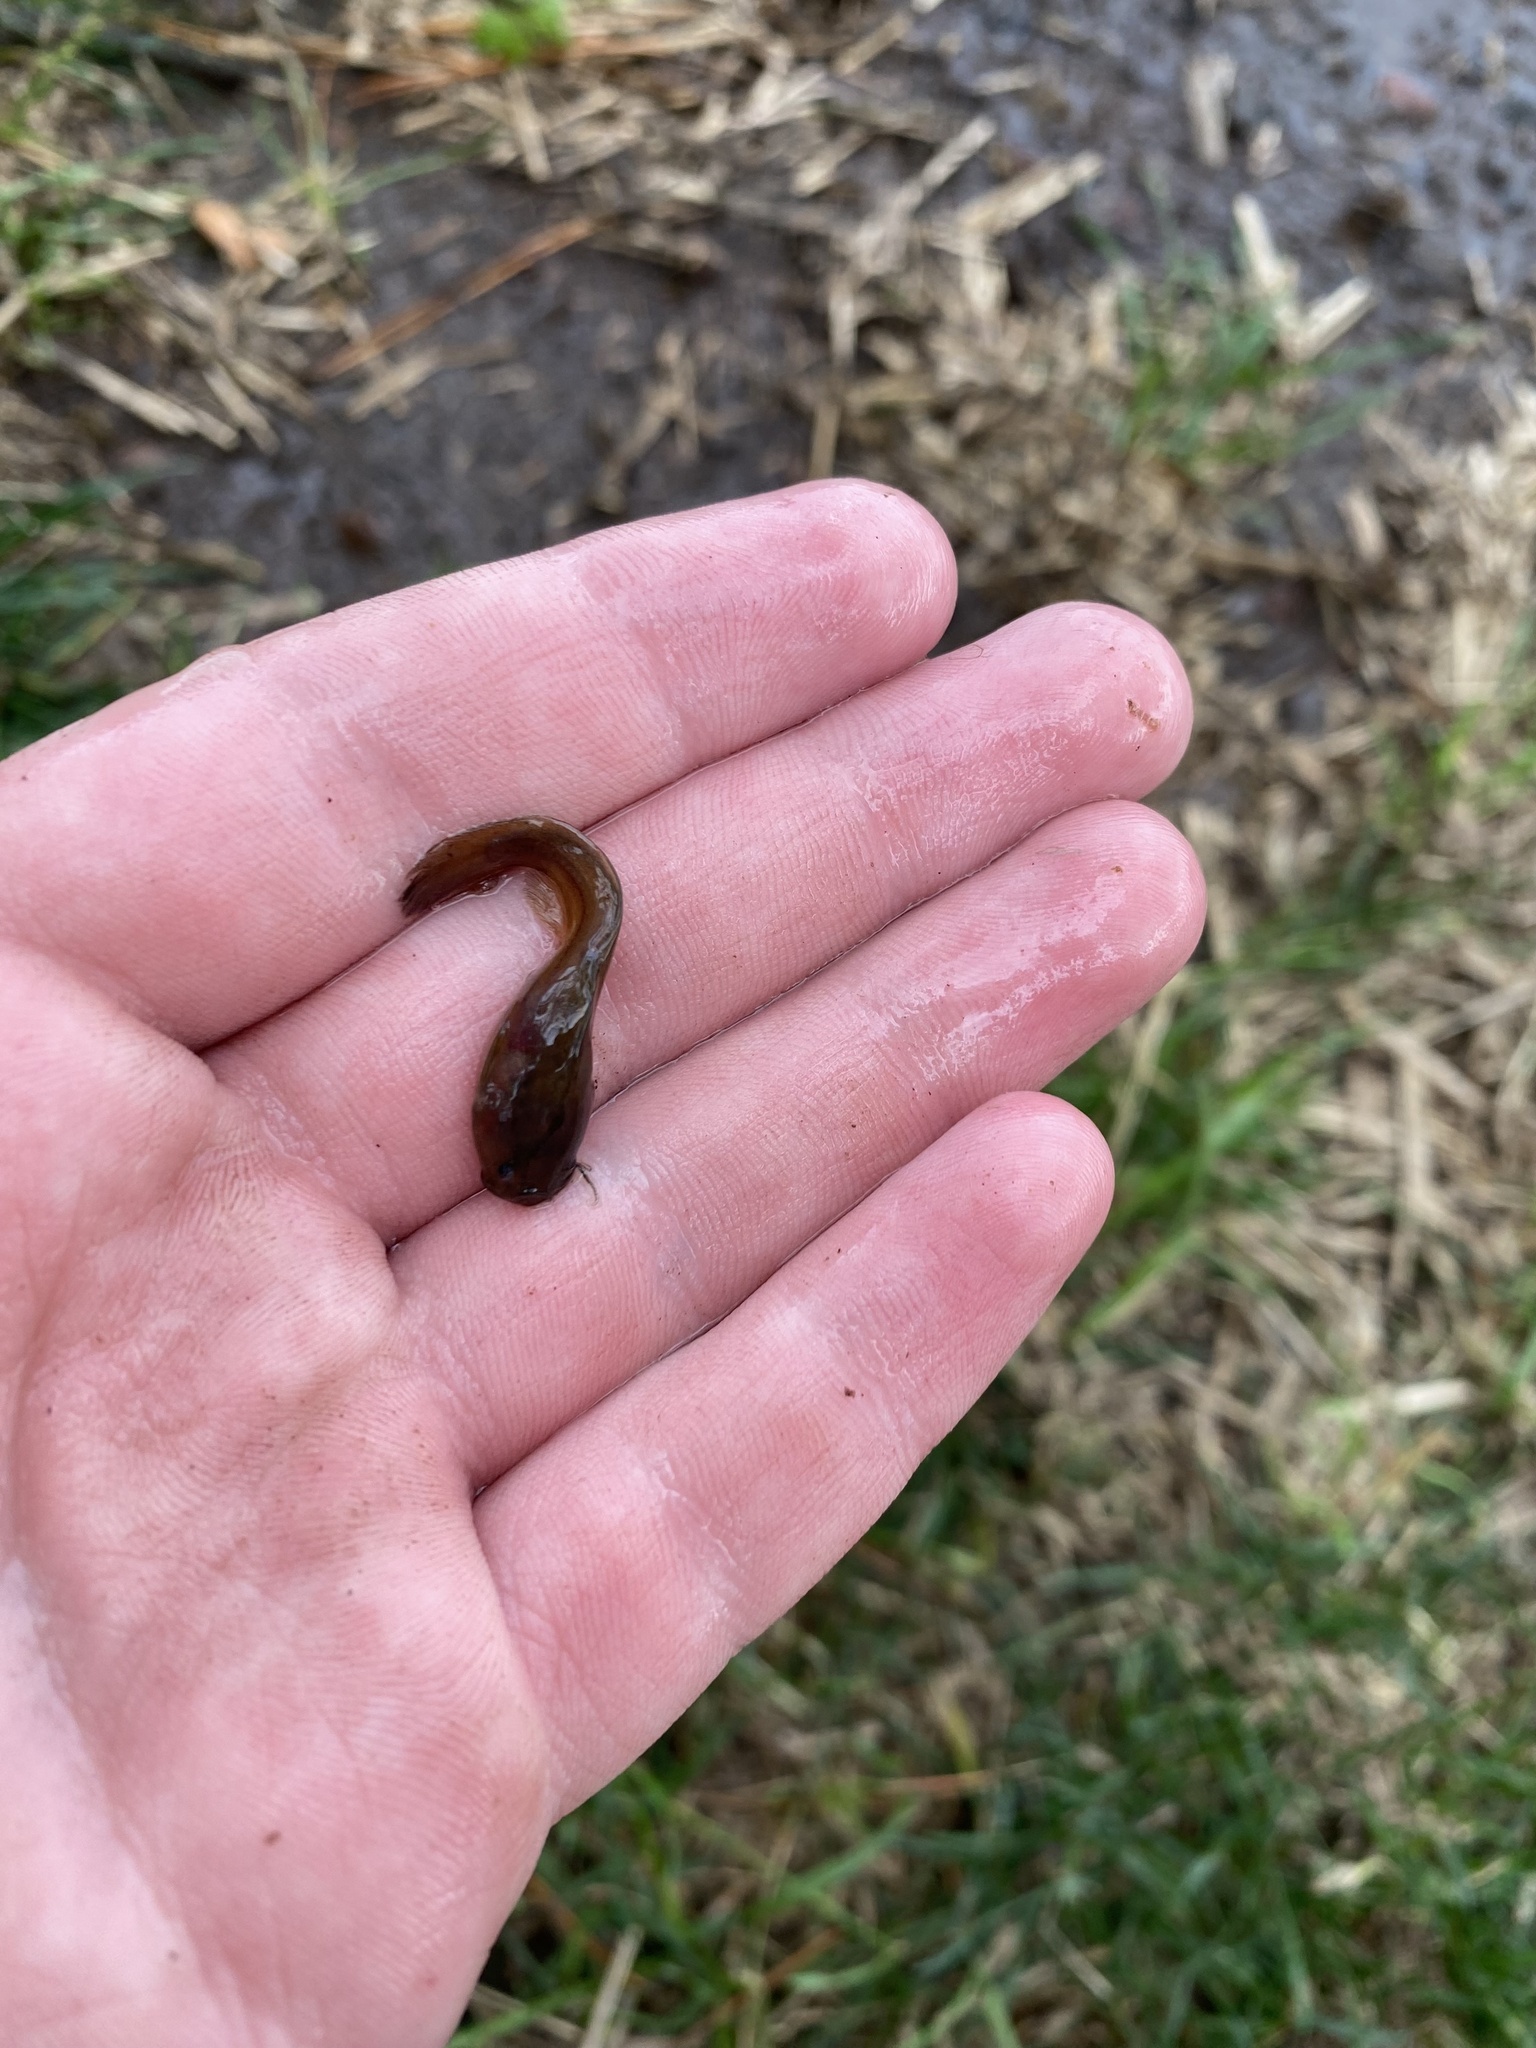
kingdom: Animalia
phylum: Chordata
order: Siluriformes
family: Ictaluridae
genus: Noturus
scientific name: Noturus gyrinus
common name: Tadpole madtom
